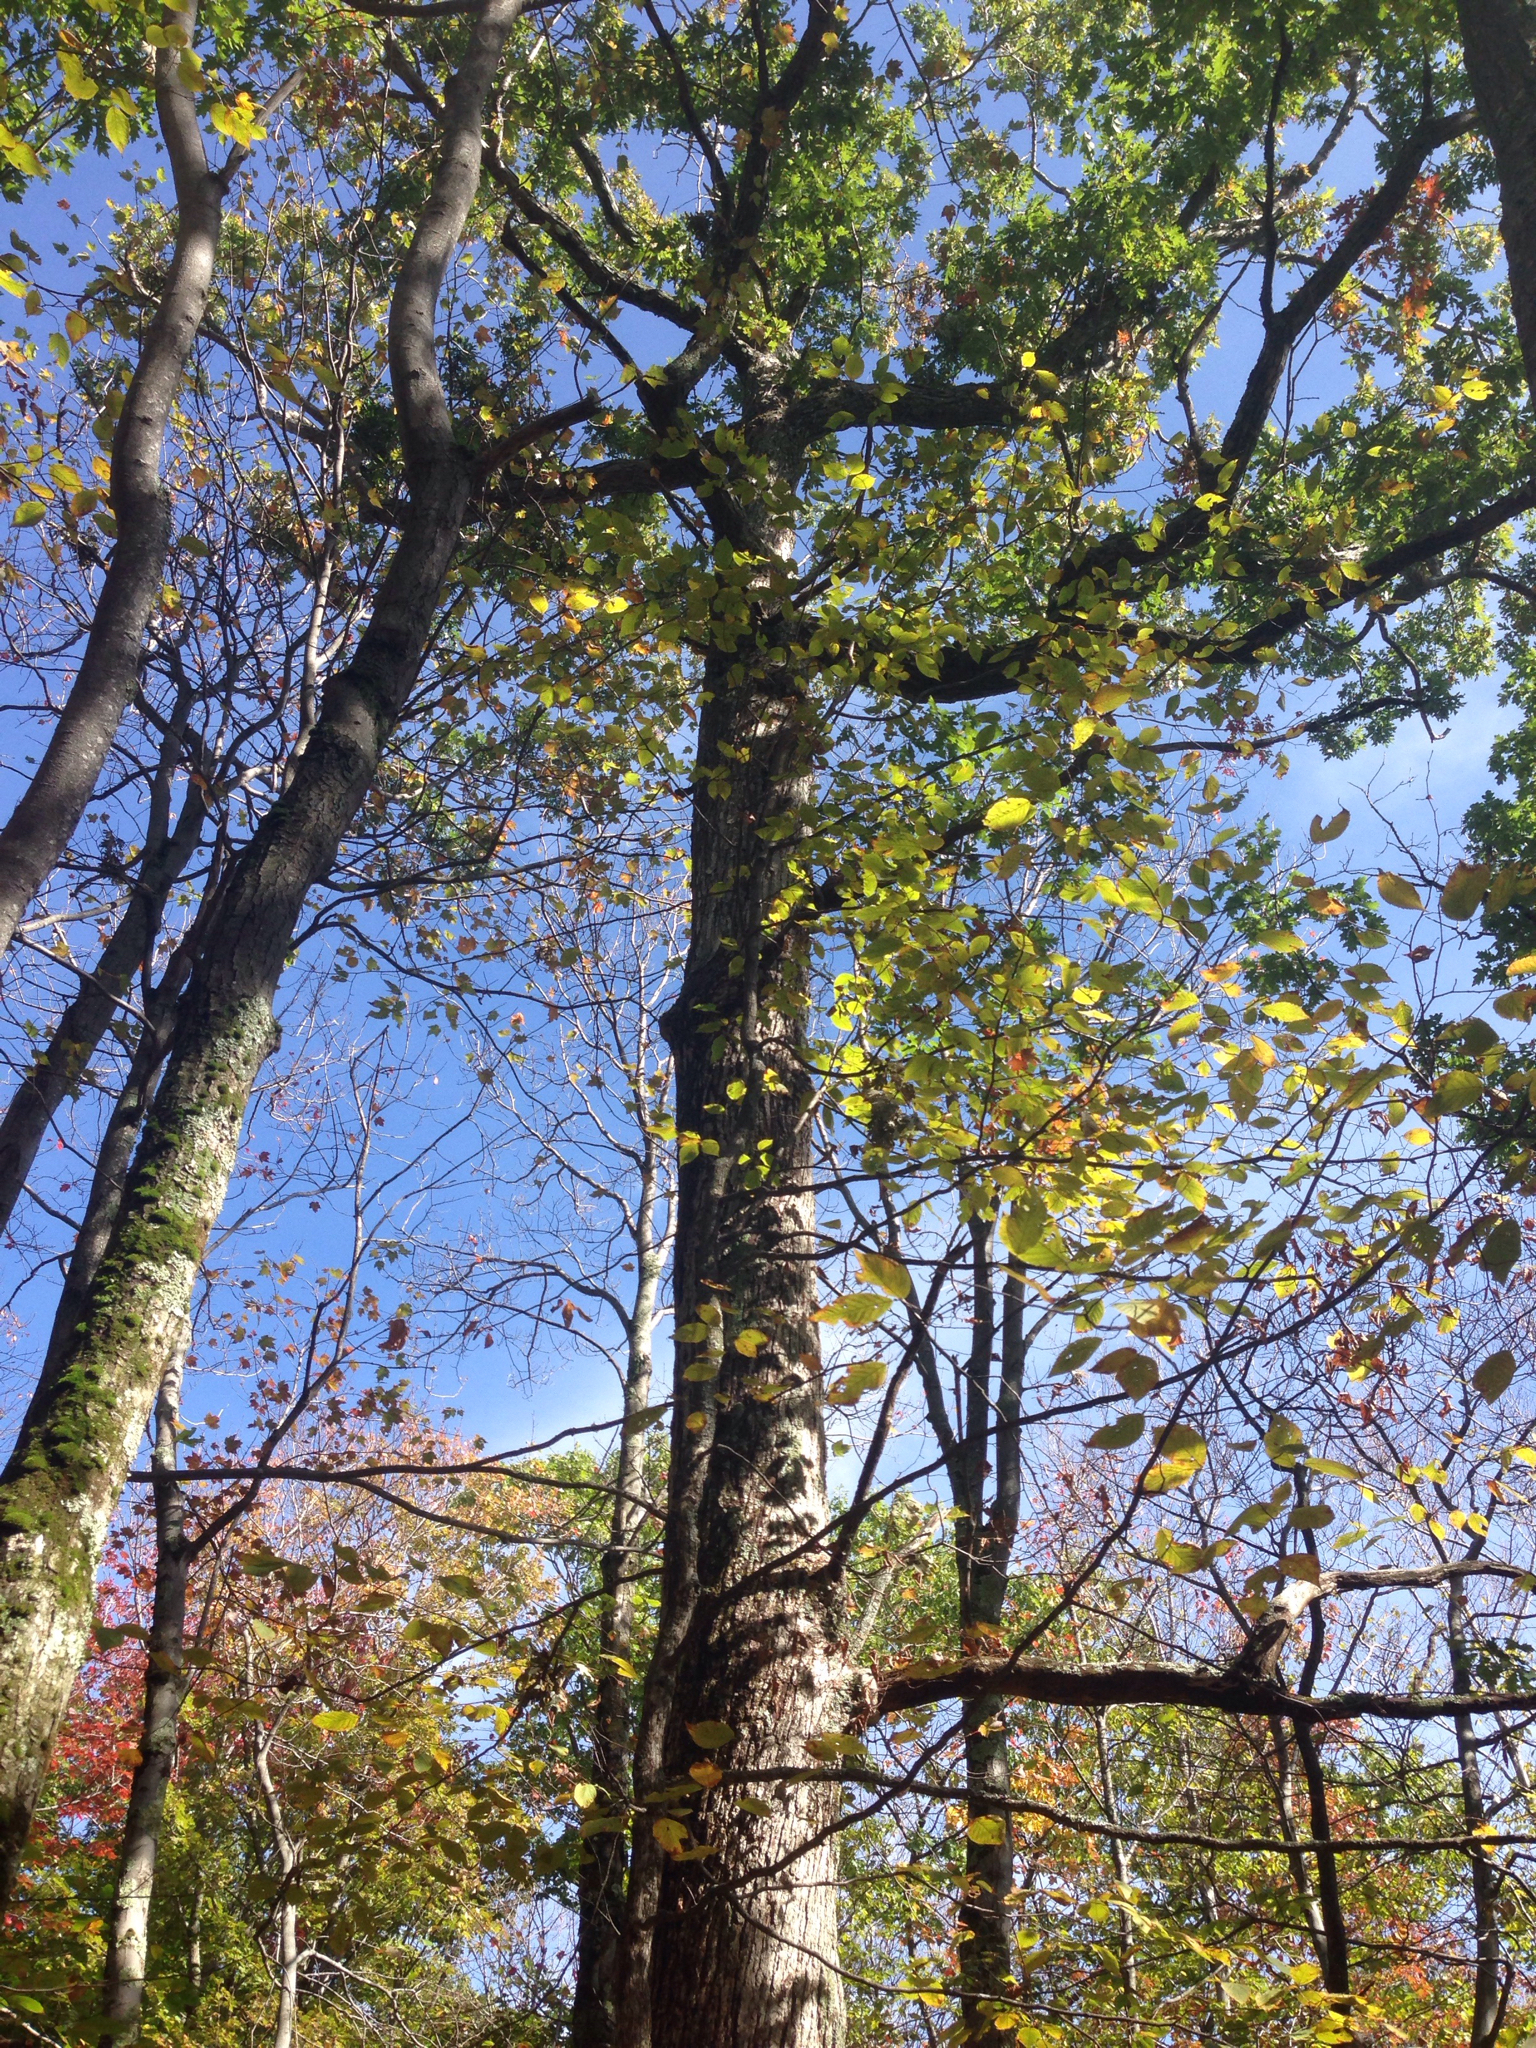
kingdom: Plantae
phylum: Tracheophyta
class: Magnoliopsida
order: Fagales
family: Fagaceae
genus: Quercus
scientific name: Quercus alba
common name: White oak
